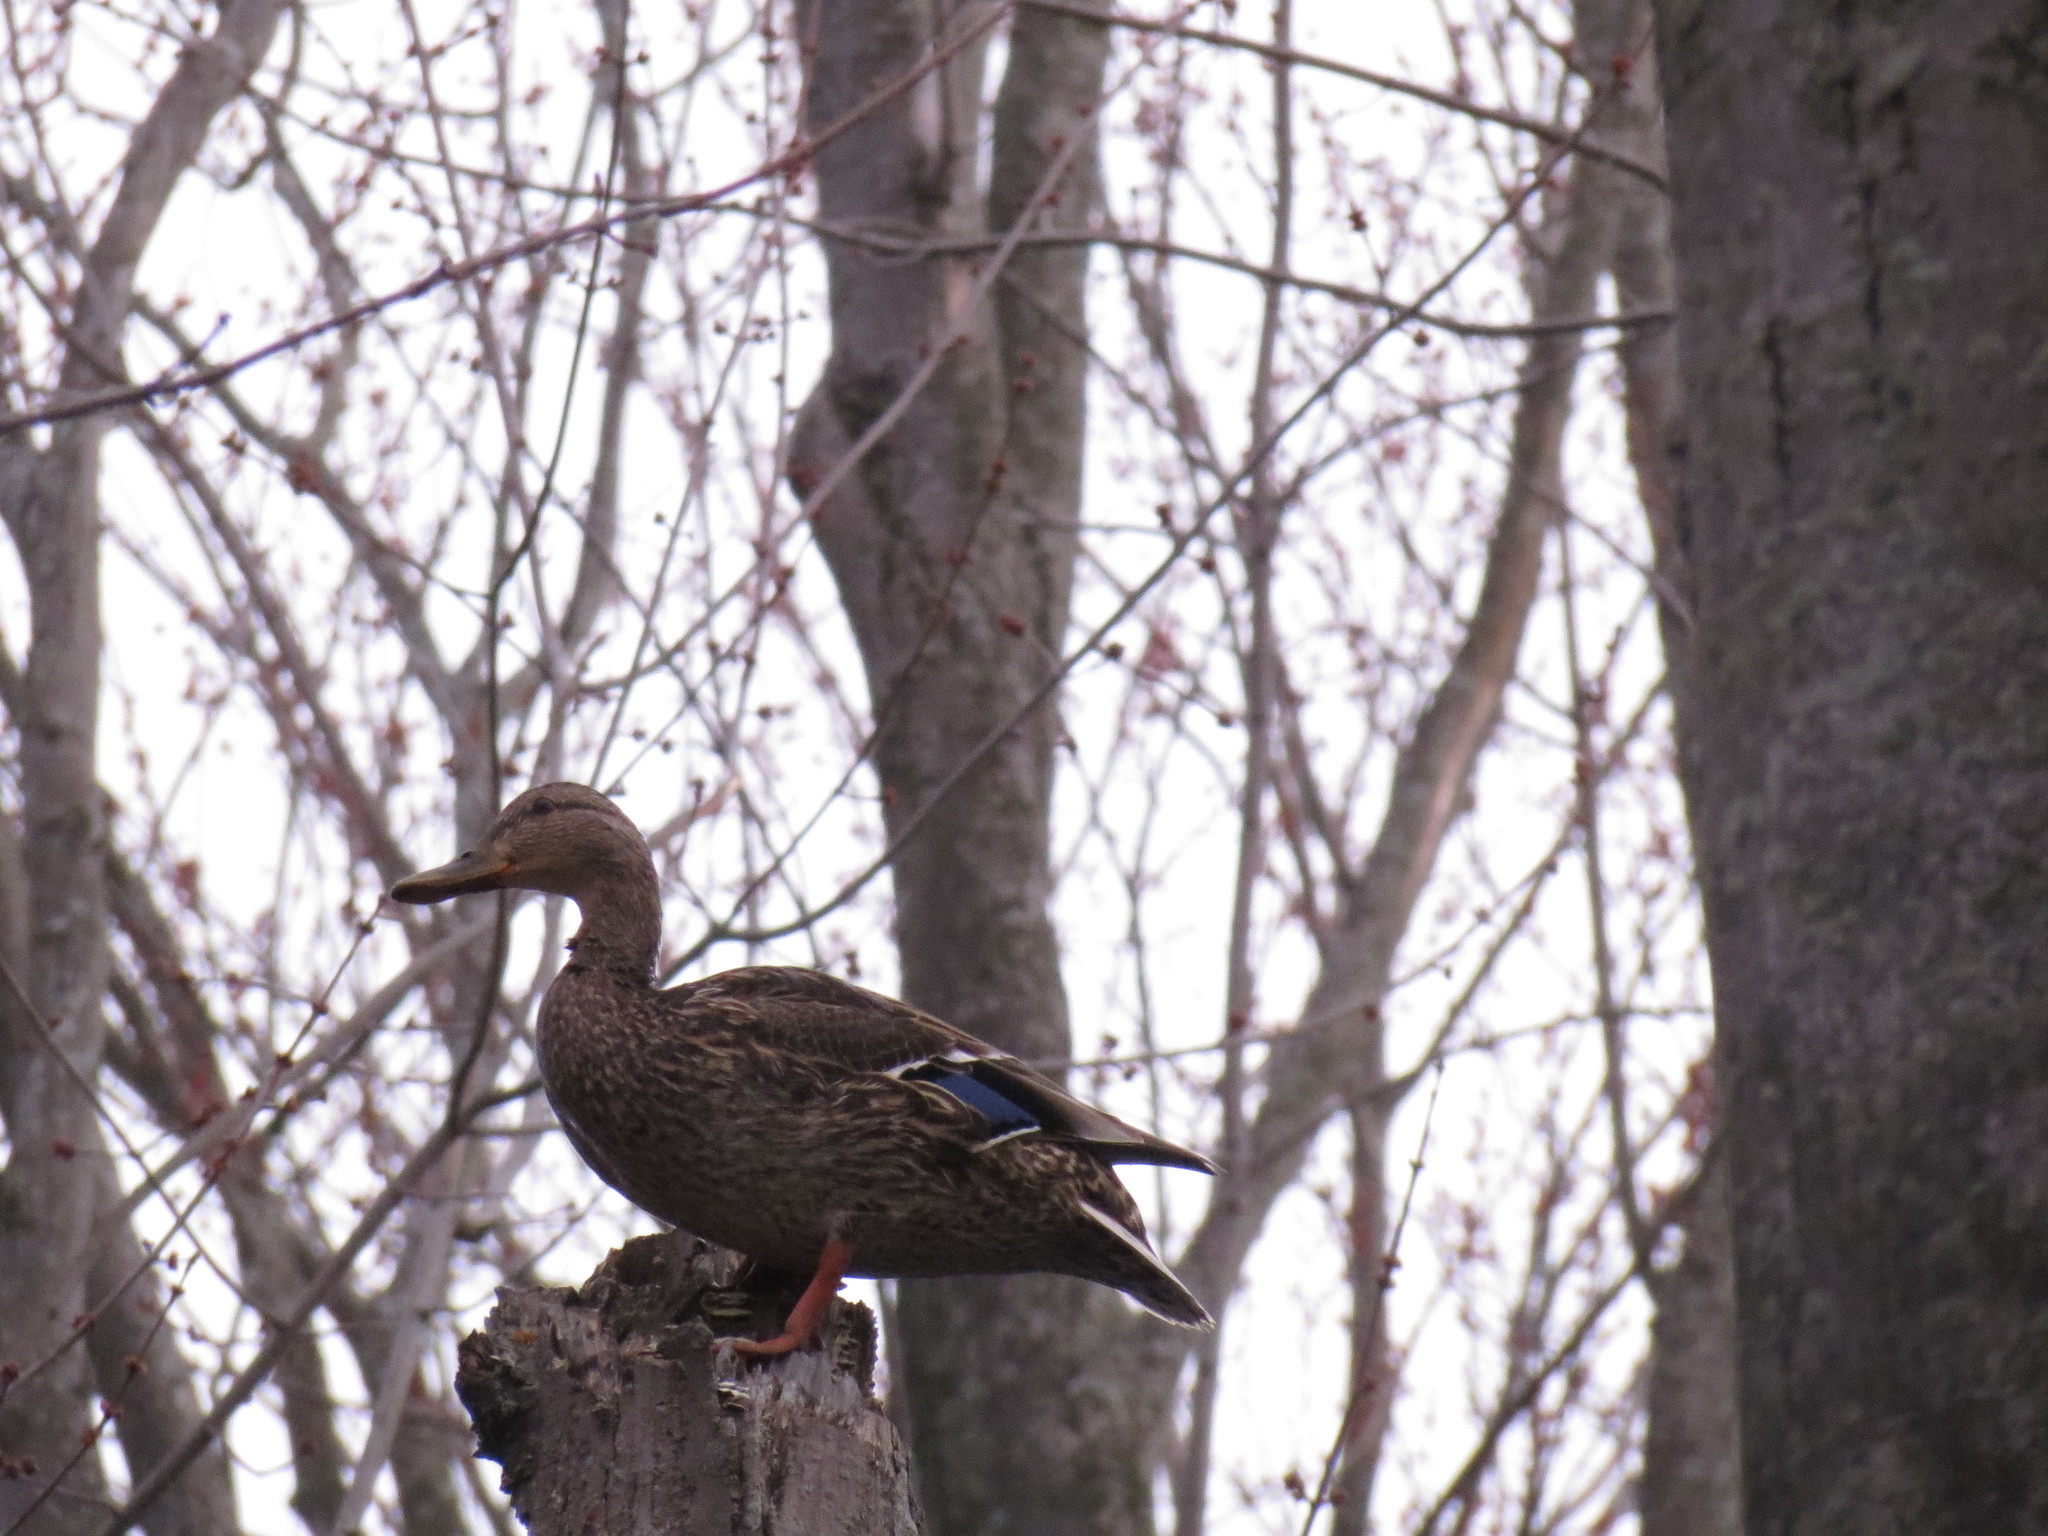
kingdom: Animalia
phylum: Chordata
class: Aves
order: Anseriformes
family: Anatidae
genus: Anas
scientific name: Anas platyrhynchos
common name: Mallard
